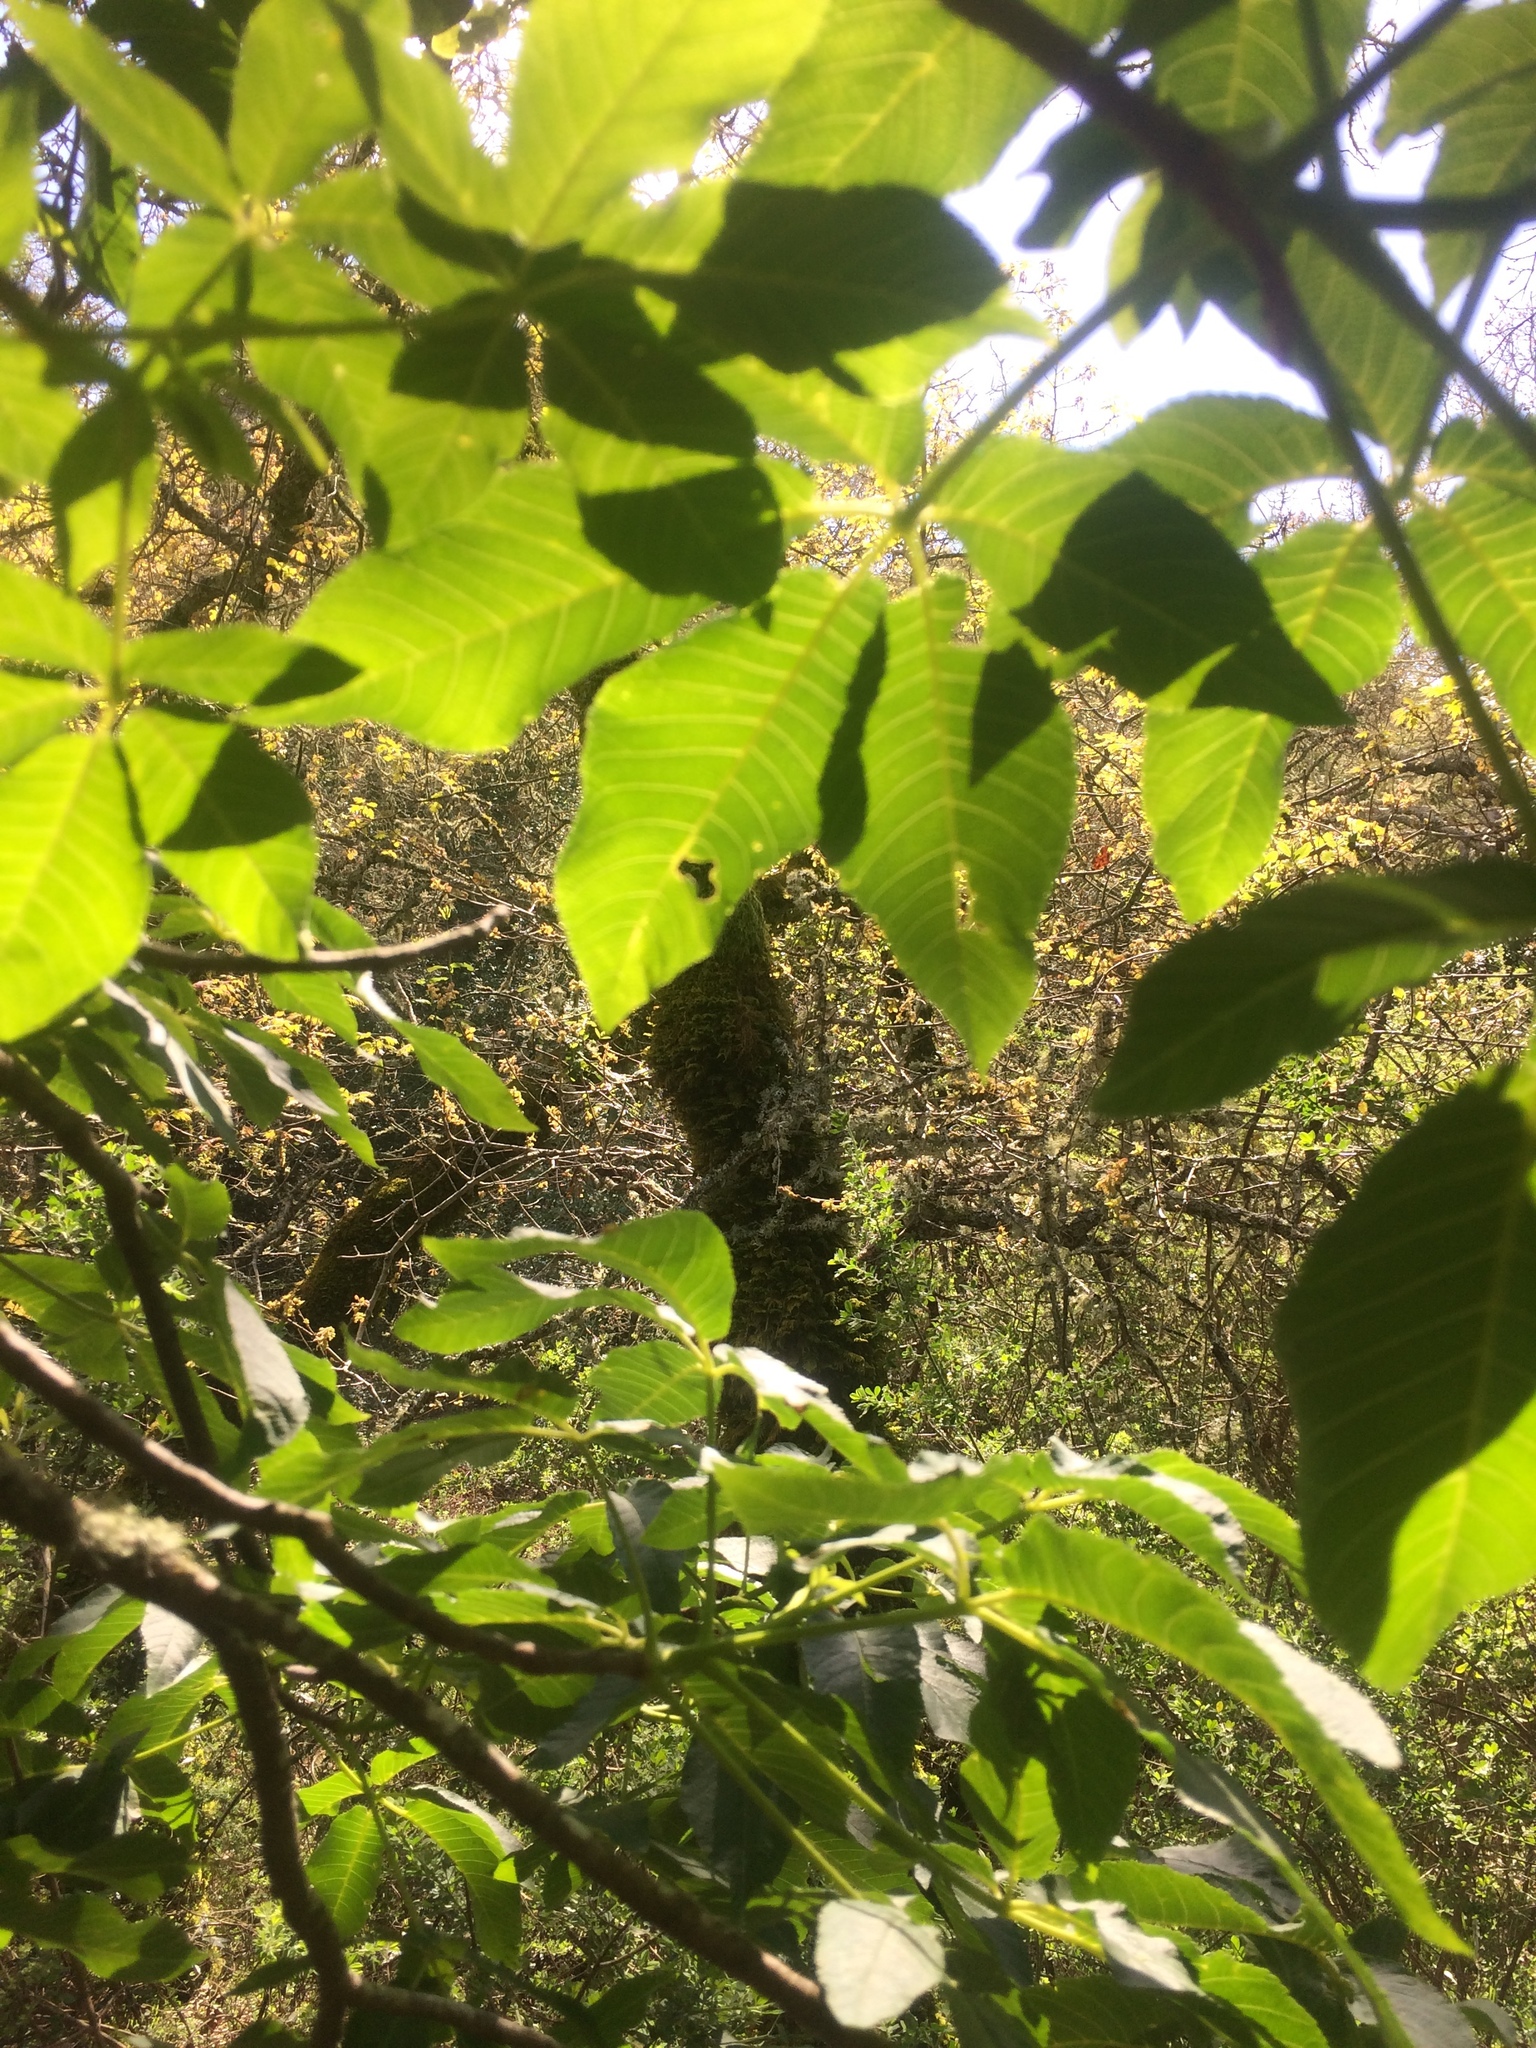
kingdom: Plantae
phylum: Tracheophyta
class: Magnoliopsida
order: Sapindales
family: Sapindaceae
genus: Aesculus
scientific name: Aesculus californica
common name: California buckeye
